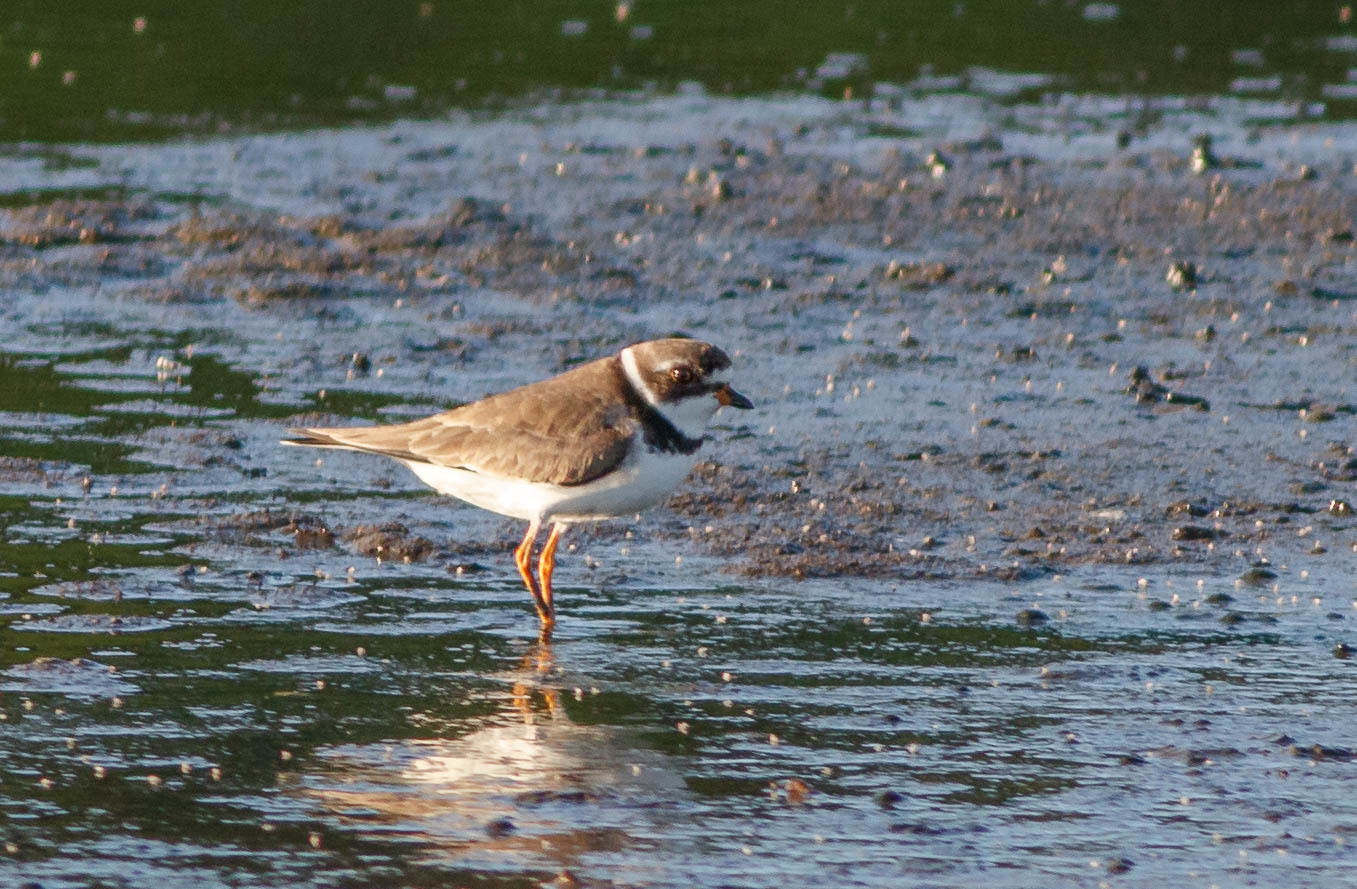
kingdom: Animalia
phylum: Chordata
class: Aves
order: Charadriiformes
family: Charadriidae
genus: Charadrius
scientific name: Charadrius semipalmatus
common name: Semipalmated plover
